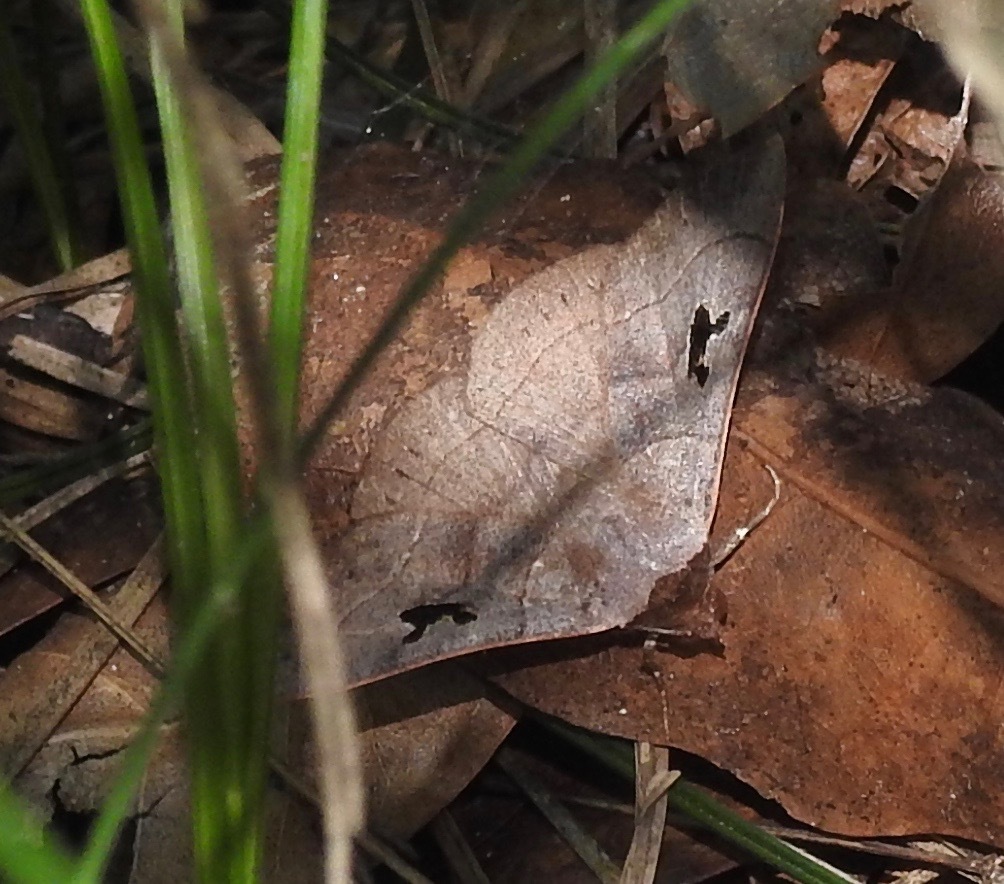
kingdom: Animalia
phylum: Arthropoda
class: Insecta
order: Lepidoptera
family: Erebidae
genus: Panopoda
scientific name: Panopoda carneicosta
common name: Brown panopoda moth
